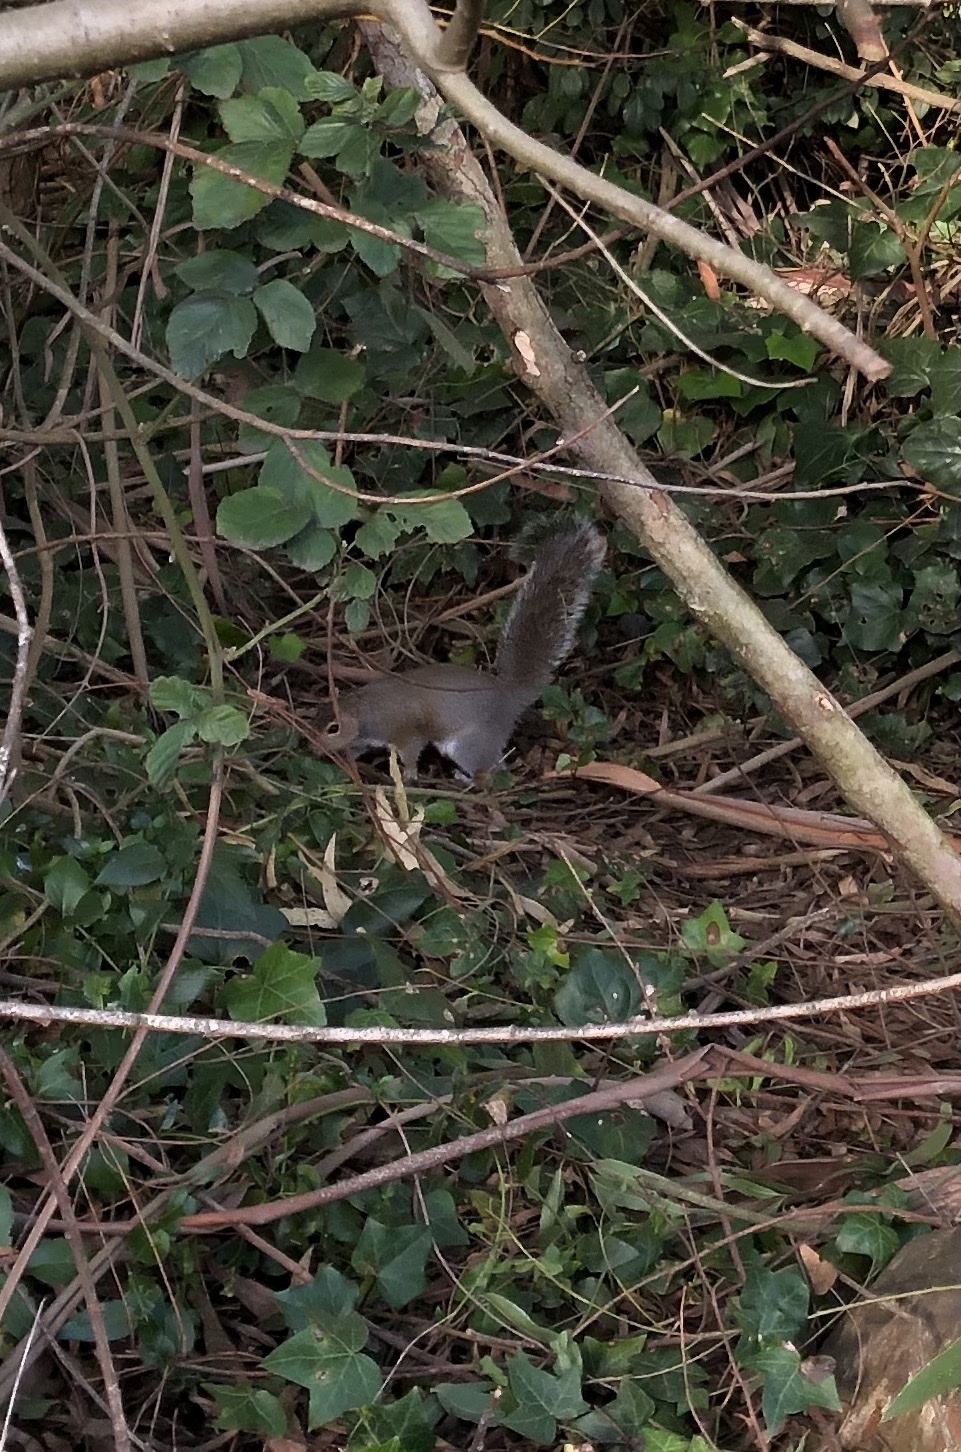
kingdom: Animalia
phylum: Chordata
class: Mammalia
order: Rodentia
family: Sciuridae
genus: Sciurus
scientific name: Sciurus carolinensis
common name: Eastern gray squirrel
